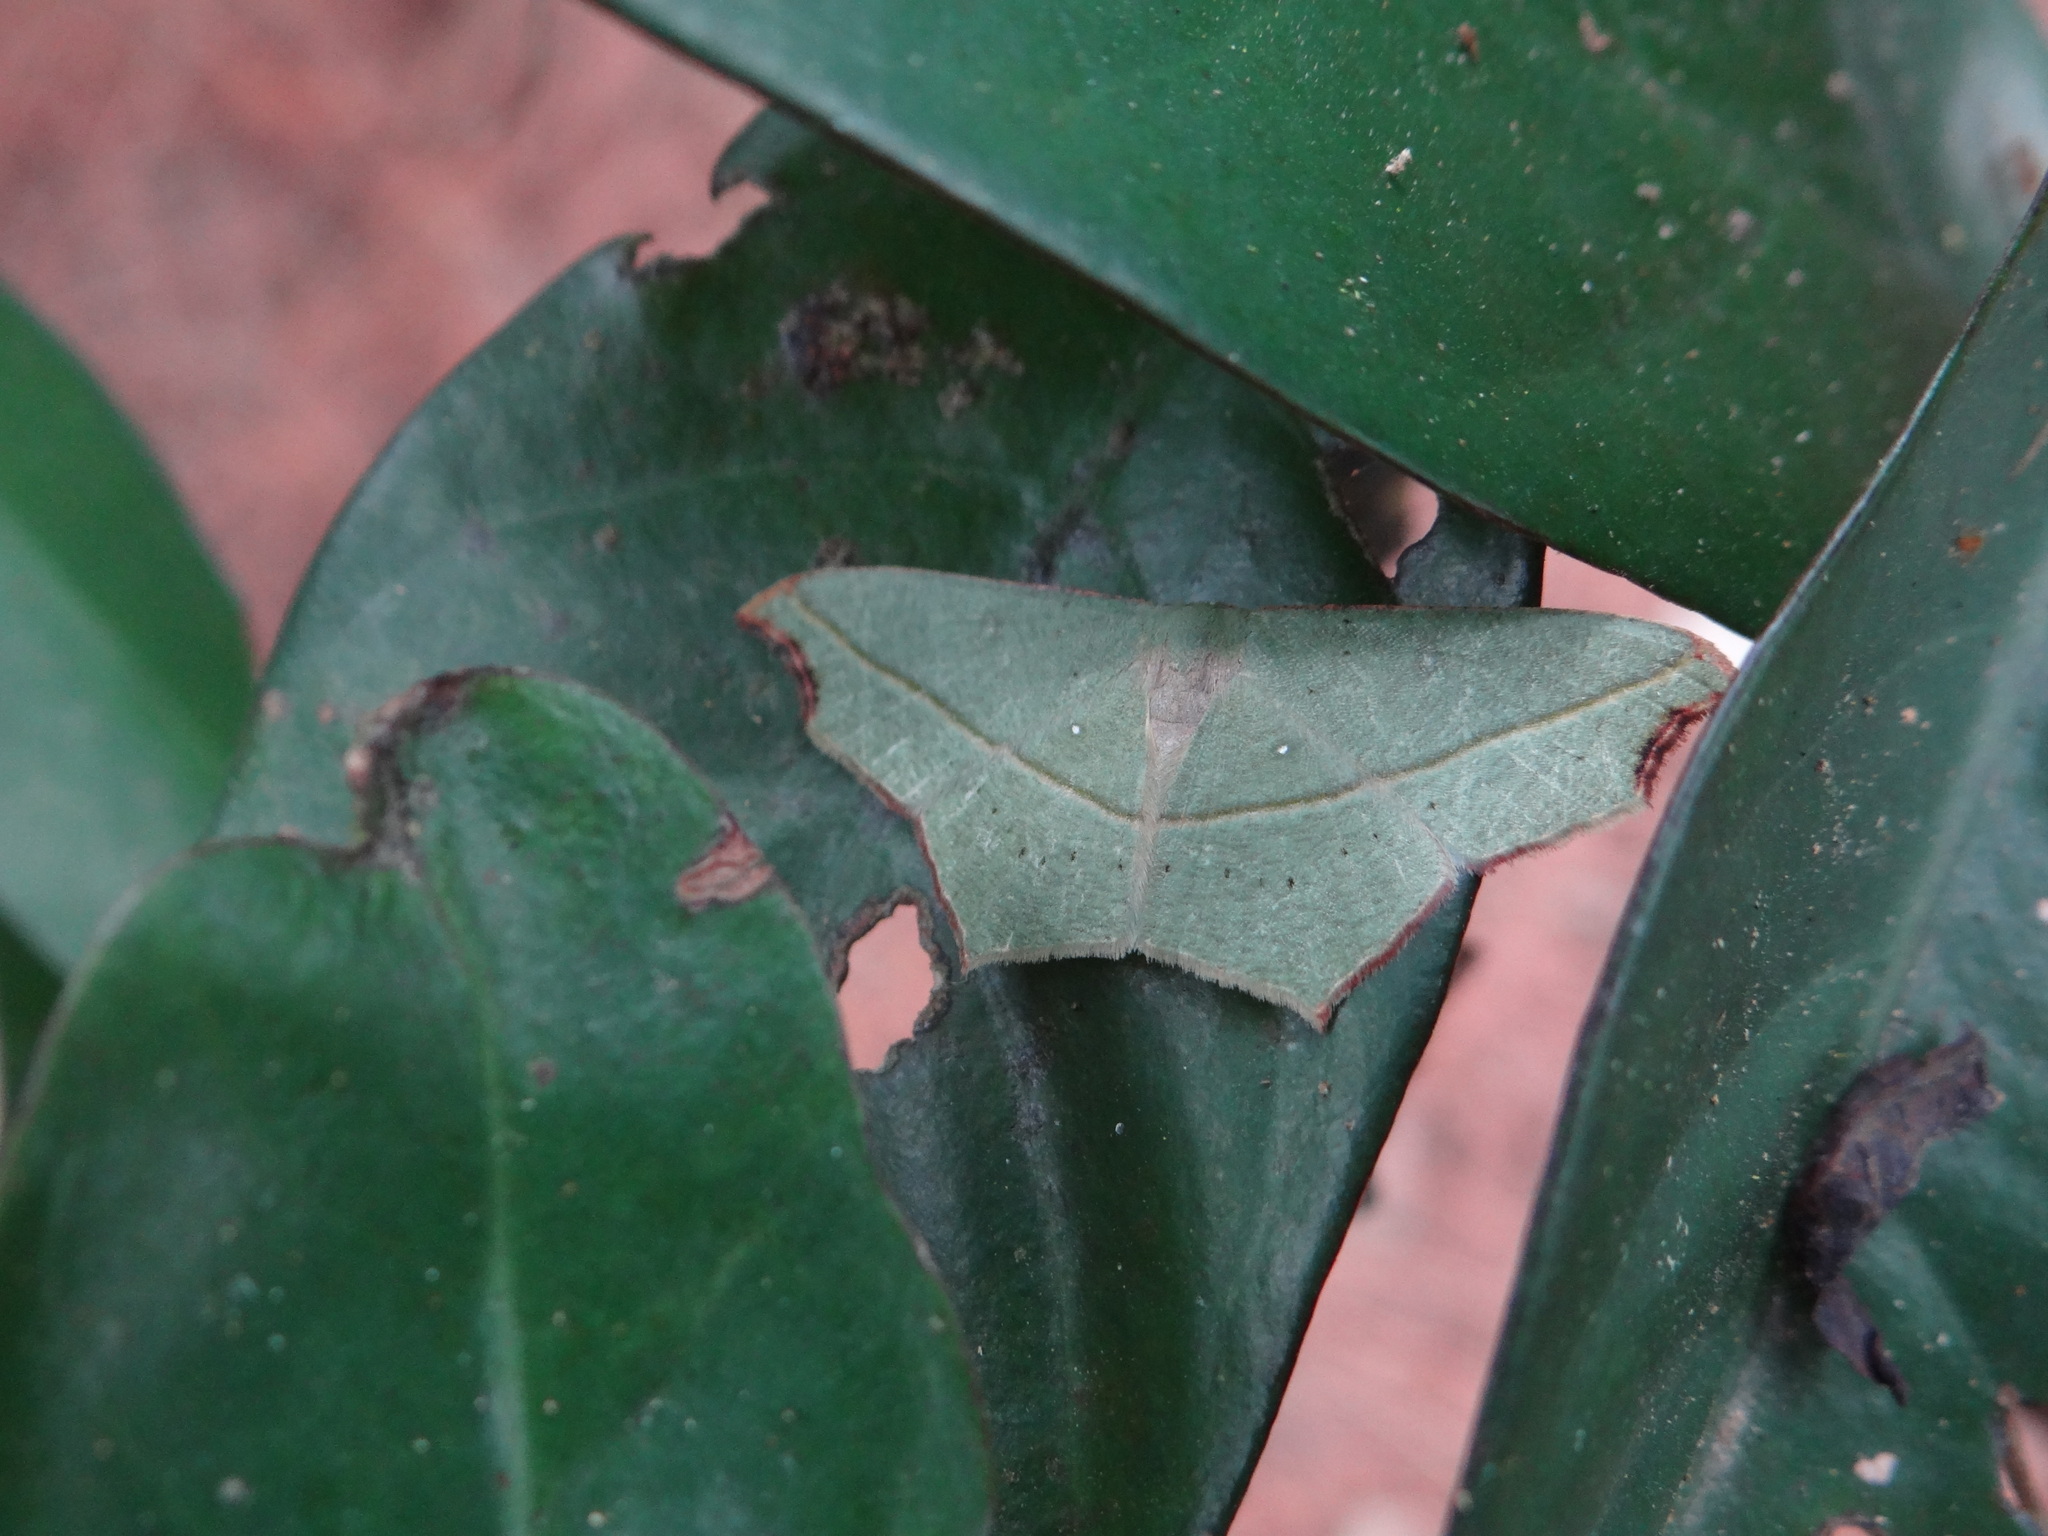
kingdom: Animalia
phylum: Arthropoda
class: Insecta
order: Lepidoptera
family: Geometridae
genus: Traminda
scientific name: Traminda aventiaria
